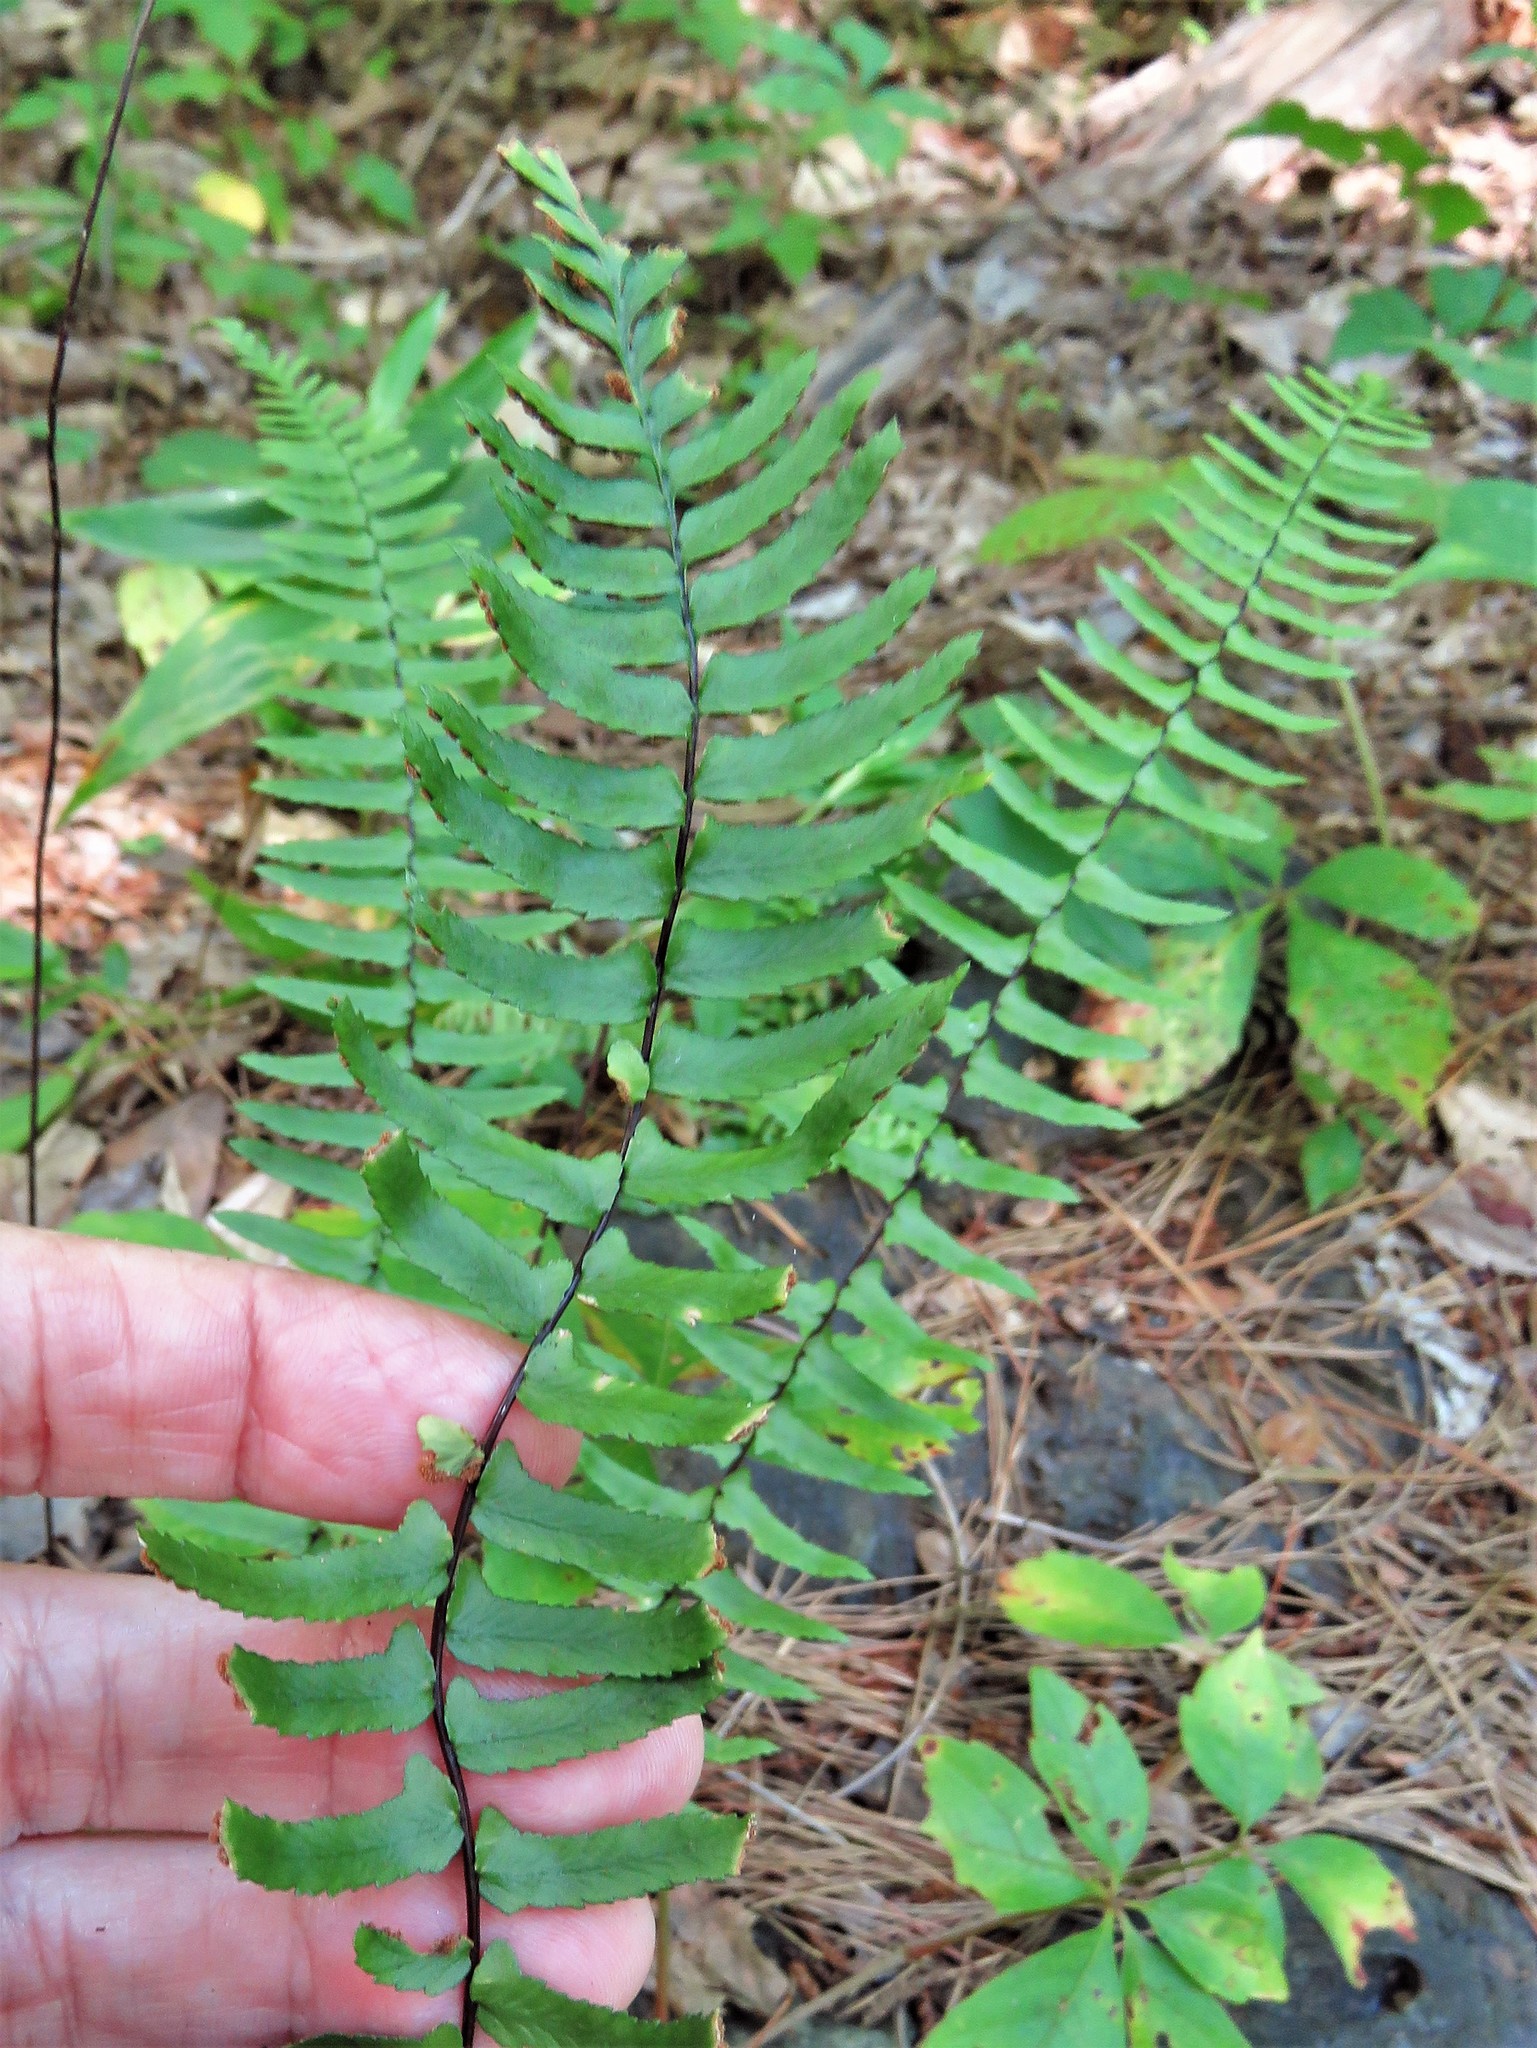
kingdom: Plantae
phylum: Tracheophyta
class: Polypodiopsida
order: Polypodiales
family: Aspleniaceae
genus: Asplenium
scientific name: Asplenium platyneuron
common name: Ebony spleenwort
